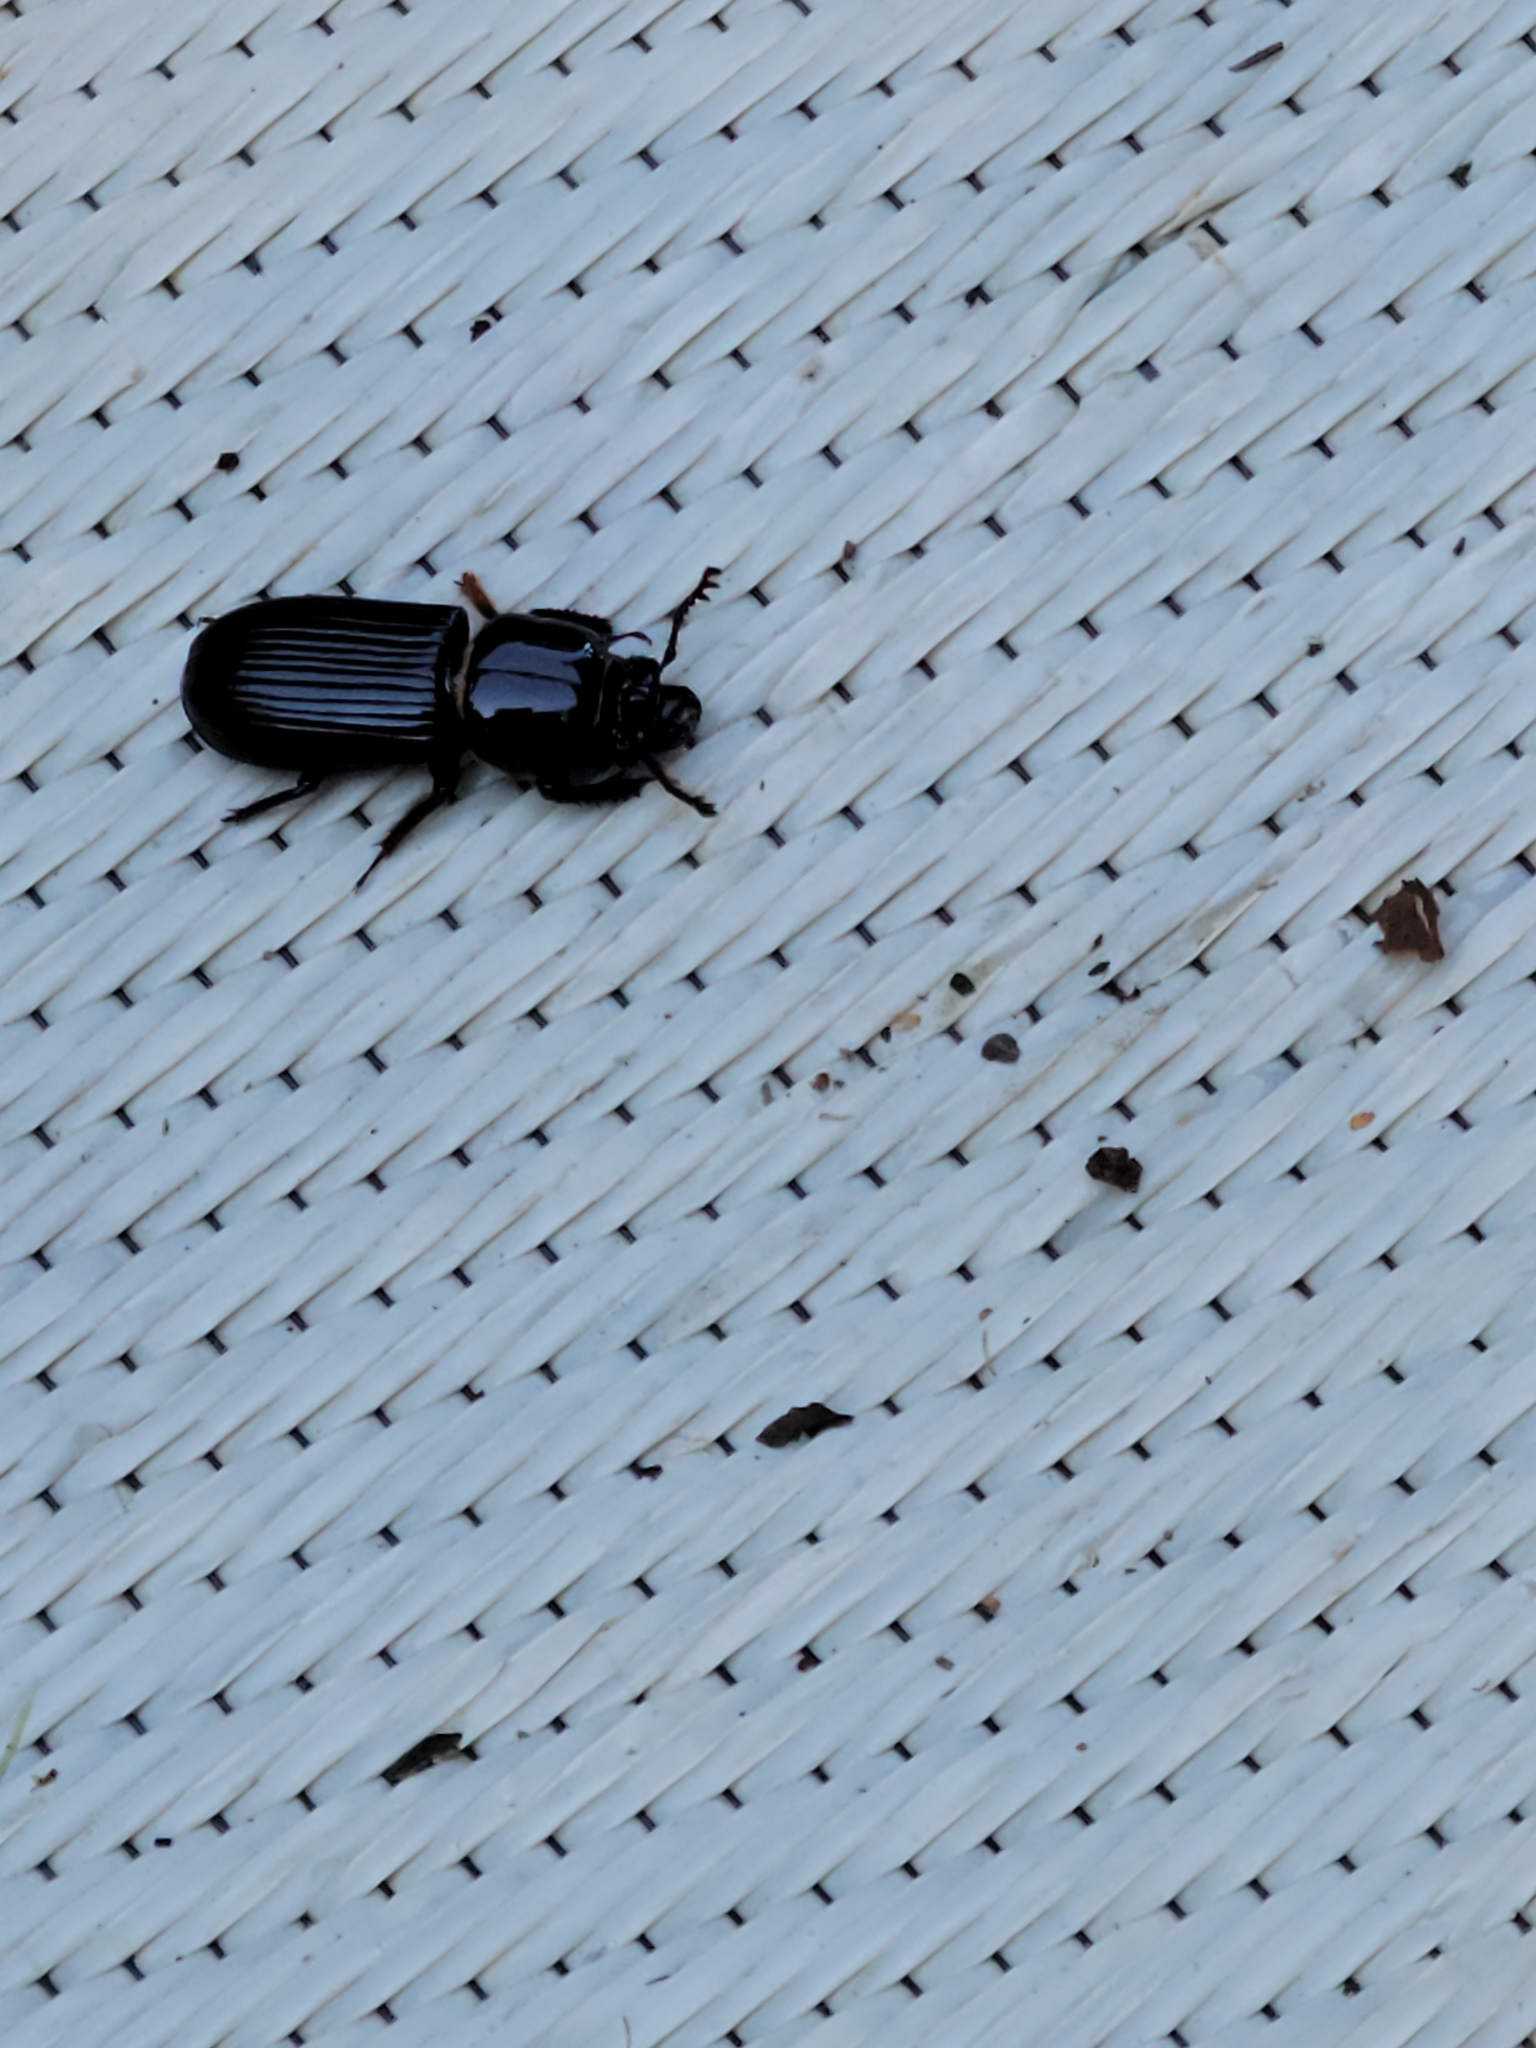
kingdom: Animalia
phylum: Arthropoda
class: Insecta
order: Coleoptera
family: Passalidae
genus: Odontotaenius
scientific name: Odontotaenius disjunctus
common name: Patent leather beetle
